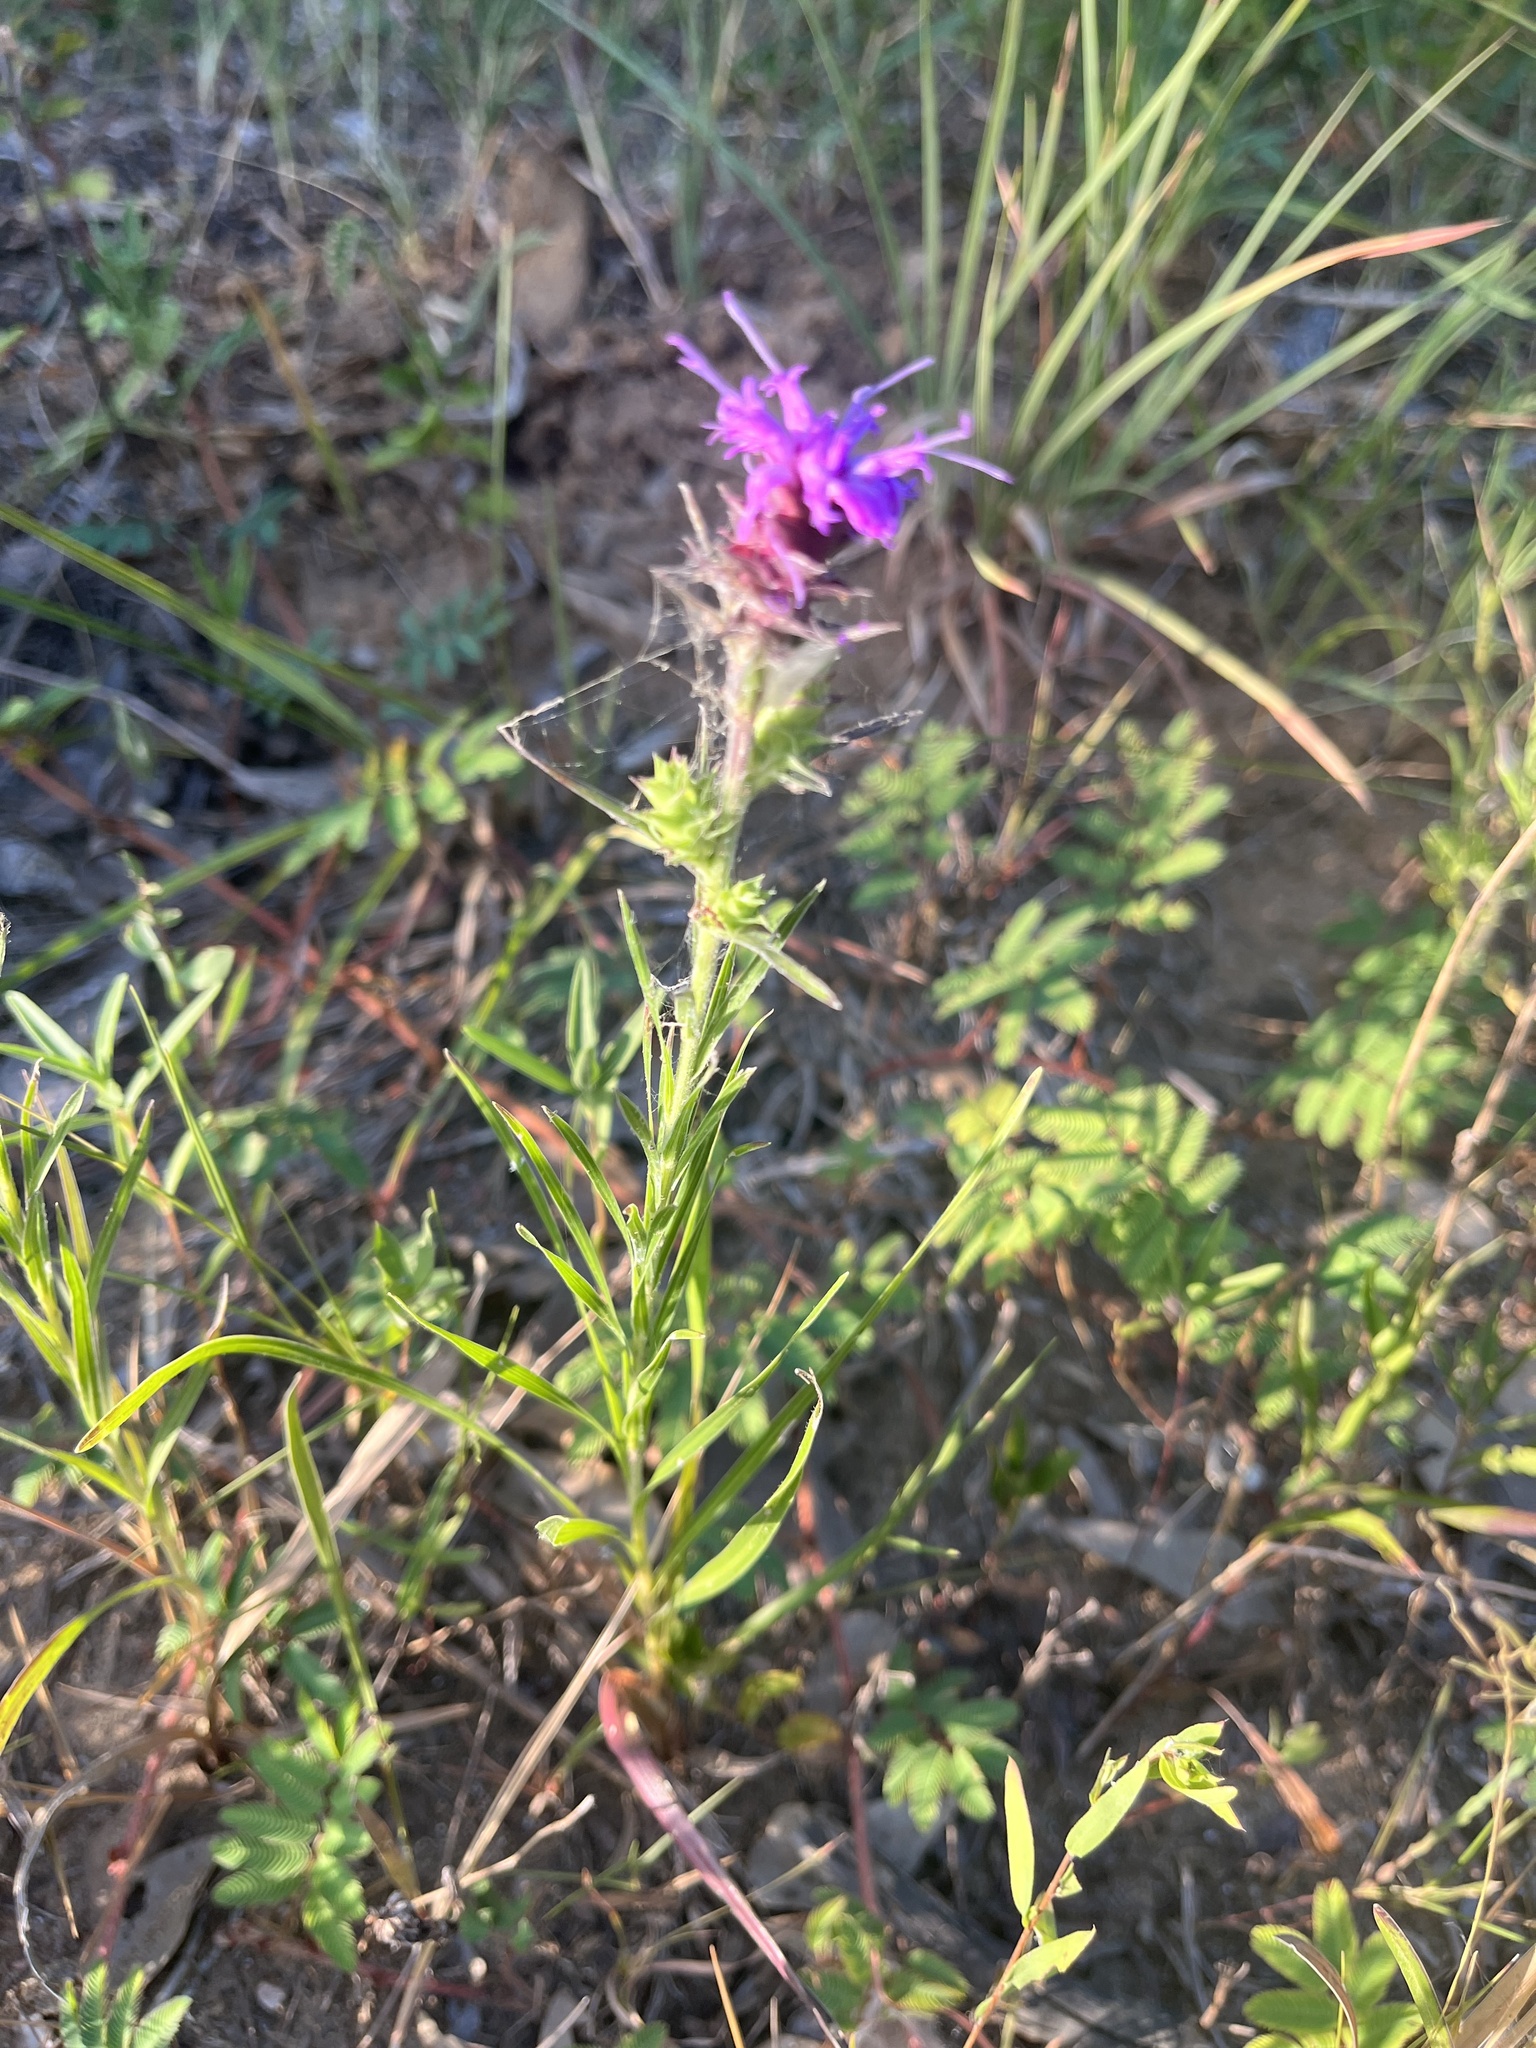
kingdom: Plantae
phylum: Tracheophyta
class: Magnoliopsida
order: Asterales
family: Asteraceae
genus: Liatris
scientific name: Liatris squarrosa
